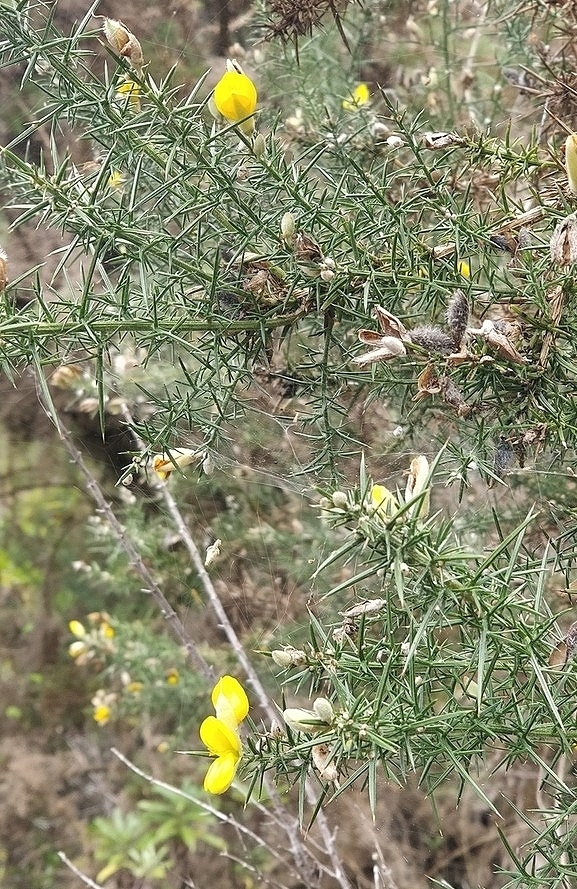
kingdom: Plantae
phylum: Tracheophyta
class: Magnoliopsida
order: Fabales
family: Fabaceae
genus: Ulex
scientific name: Ulex europaeus
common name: Common gorse
